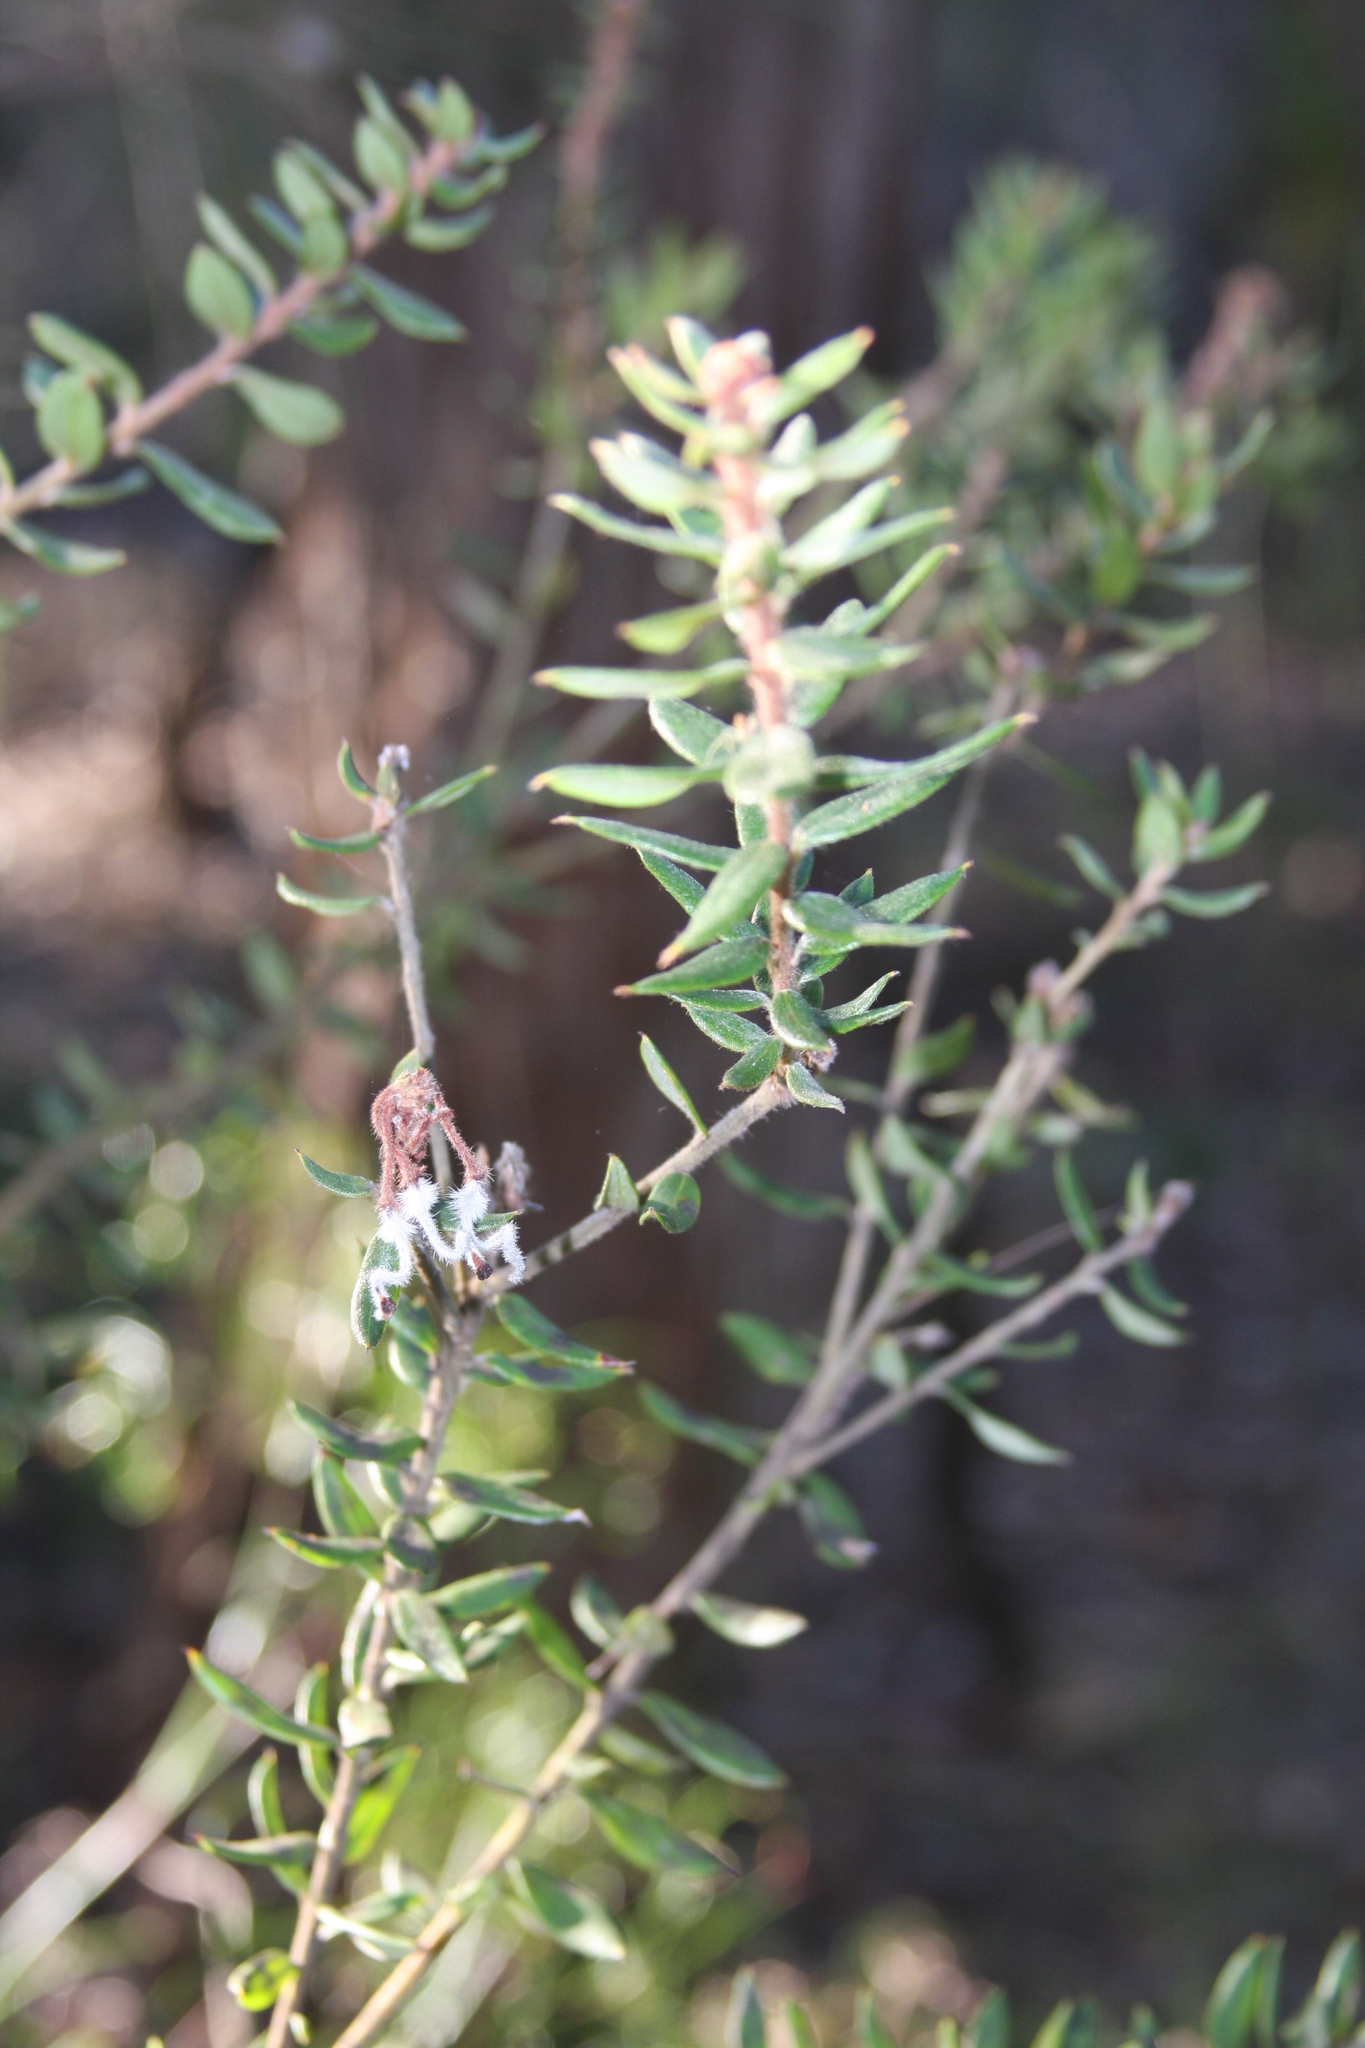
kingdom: Plantae
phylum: Tracheophyta
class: Magnoliopsida
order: Proteales
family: Proteaceae
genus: Grevillea
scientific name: Grevillea buxifolia
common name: Grey spiderflower
